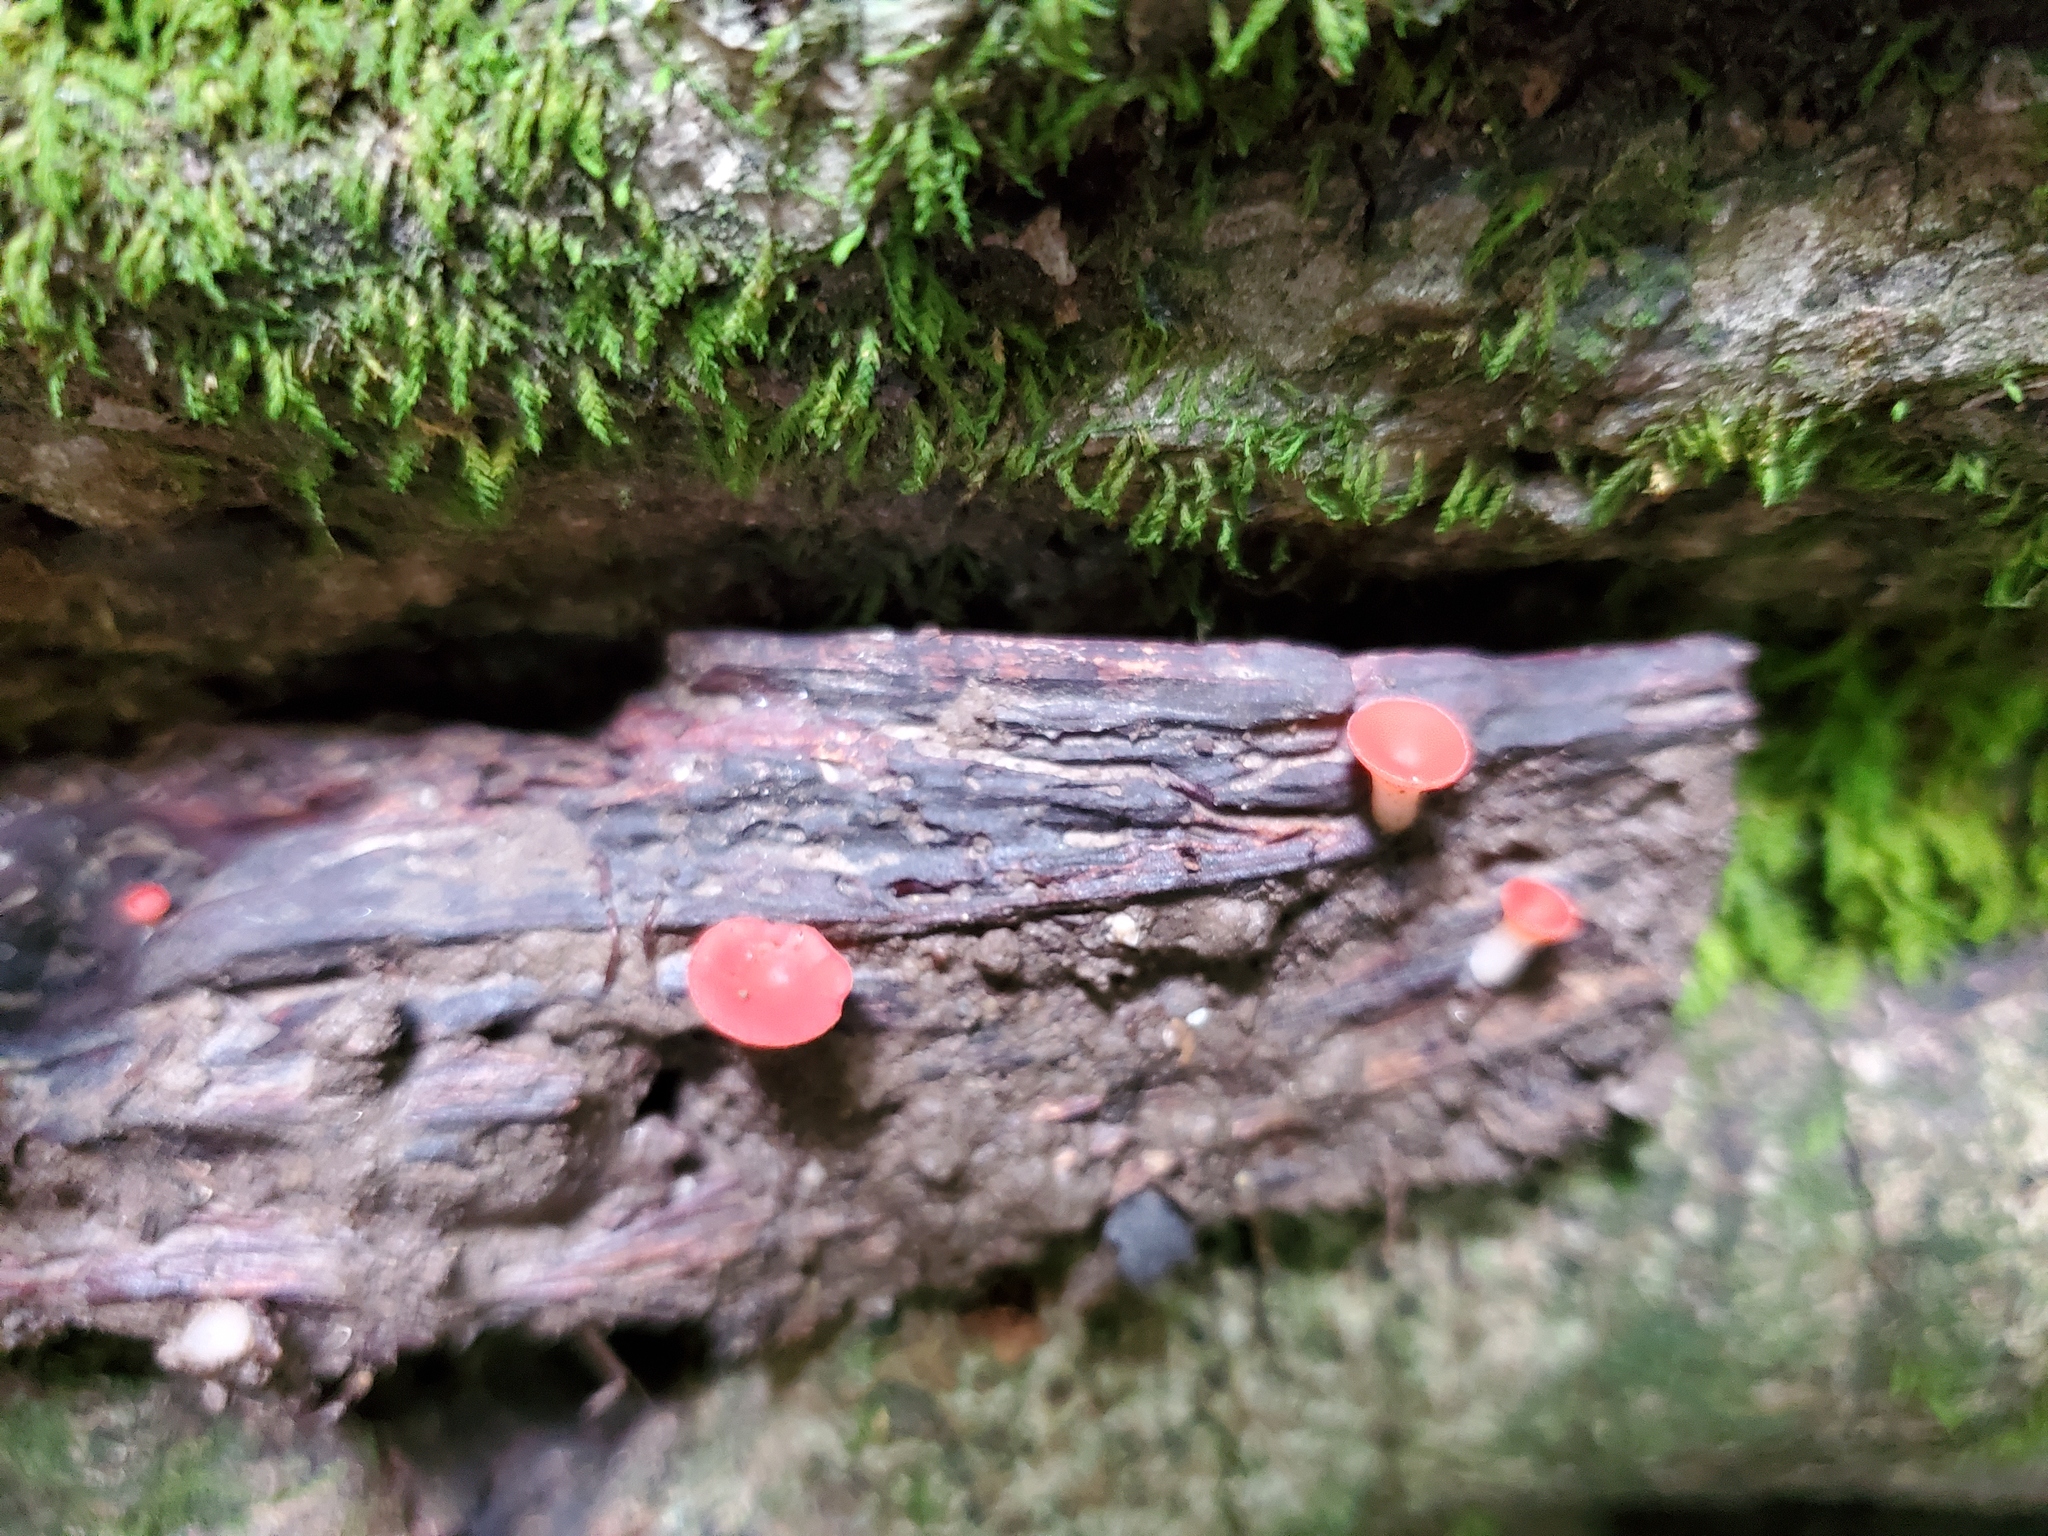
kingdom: Fungi
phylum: Ascomycota
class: Pezizomycetes
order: Pezizales
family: Sarcoscyphaceae
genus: Sarcoscypha
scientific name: Sarcoscypha occidentalis
